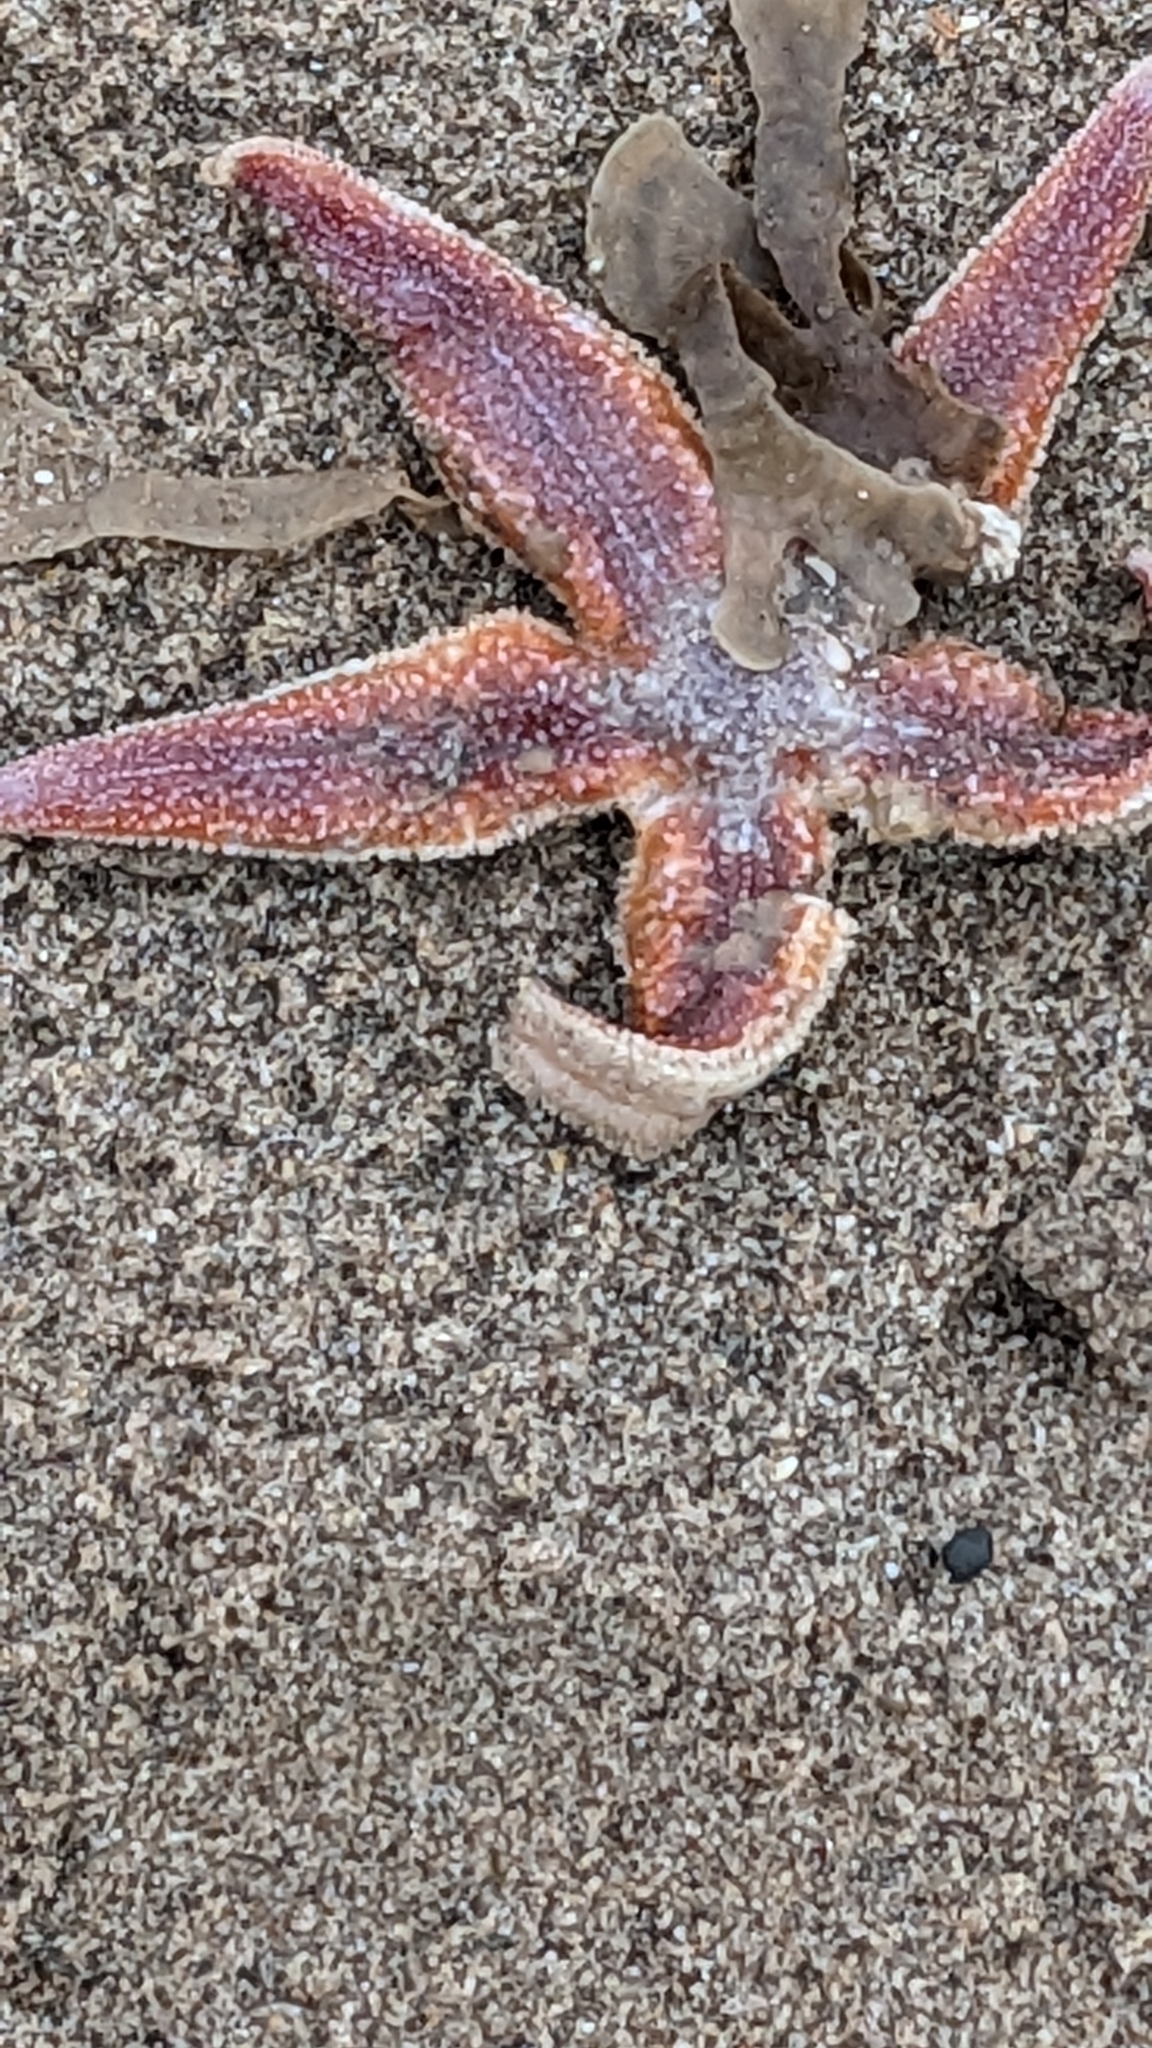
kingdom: Animalia
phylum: Echinodermata
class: Asteroidea
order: Forcipulatida
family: Asteriidae
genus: Asterias
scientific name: Asterias rubens
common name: Common starfish
